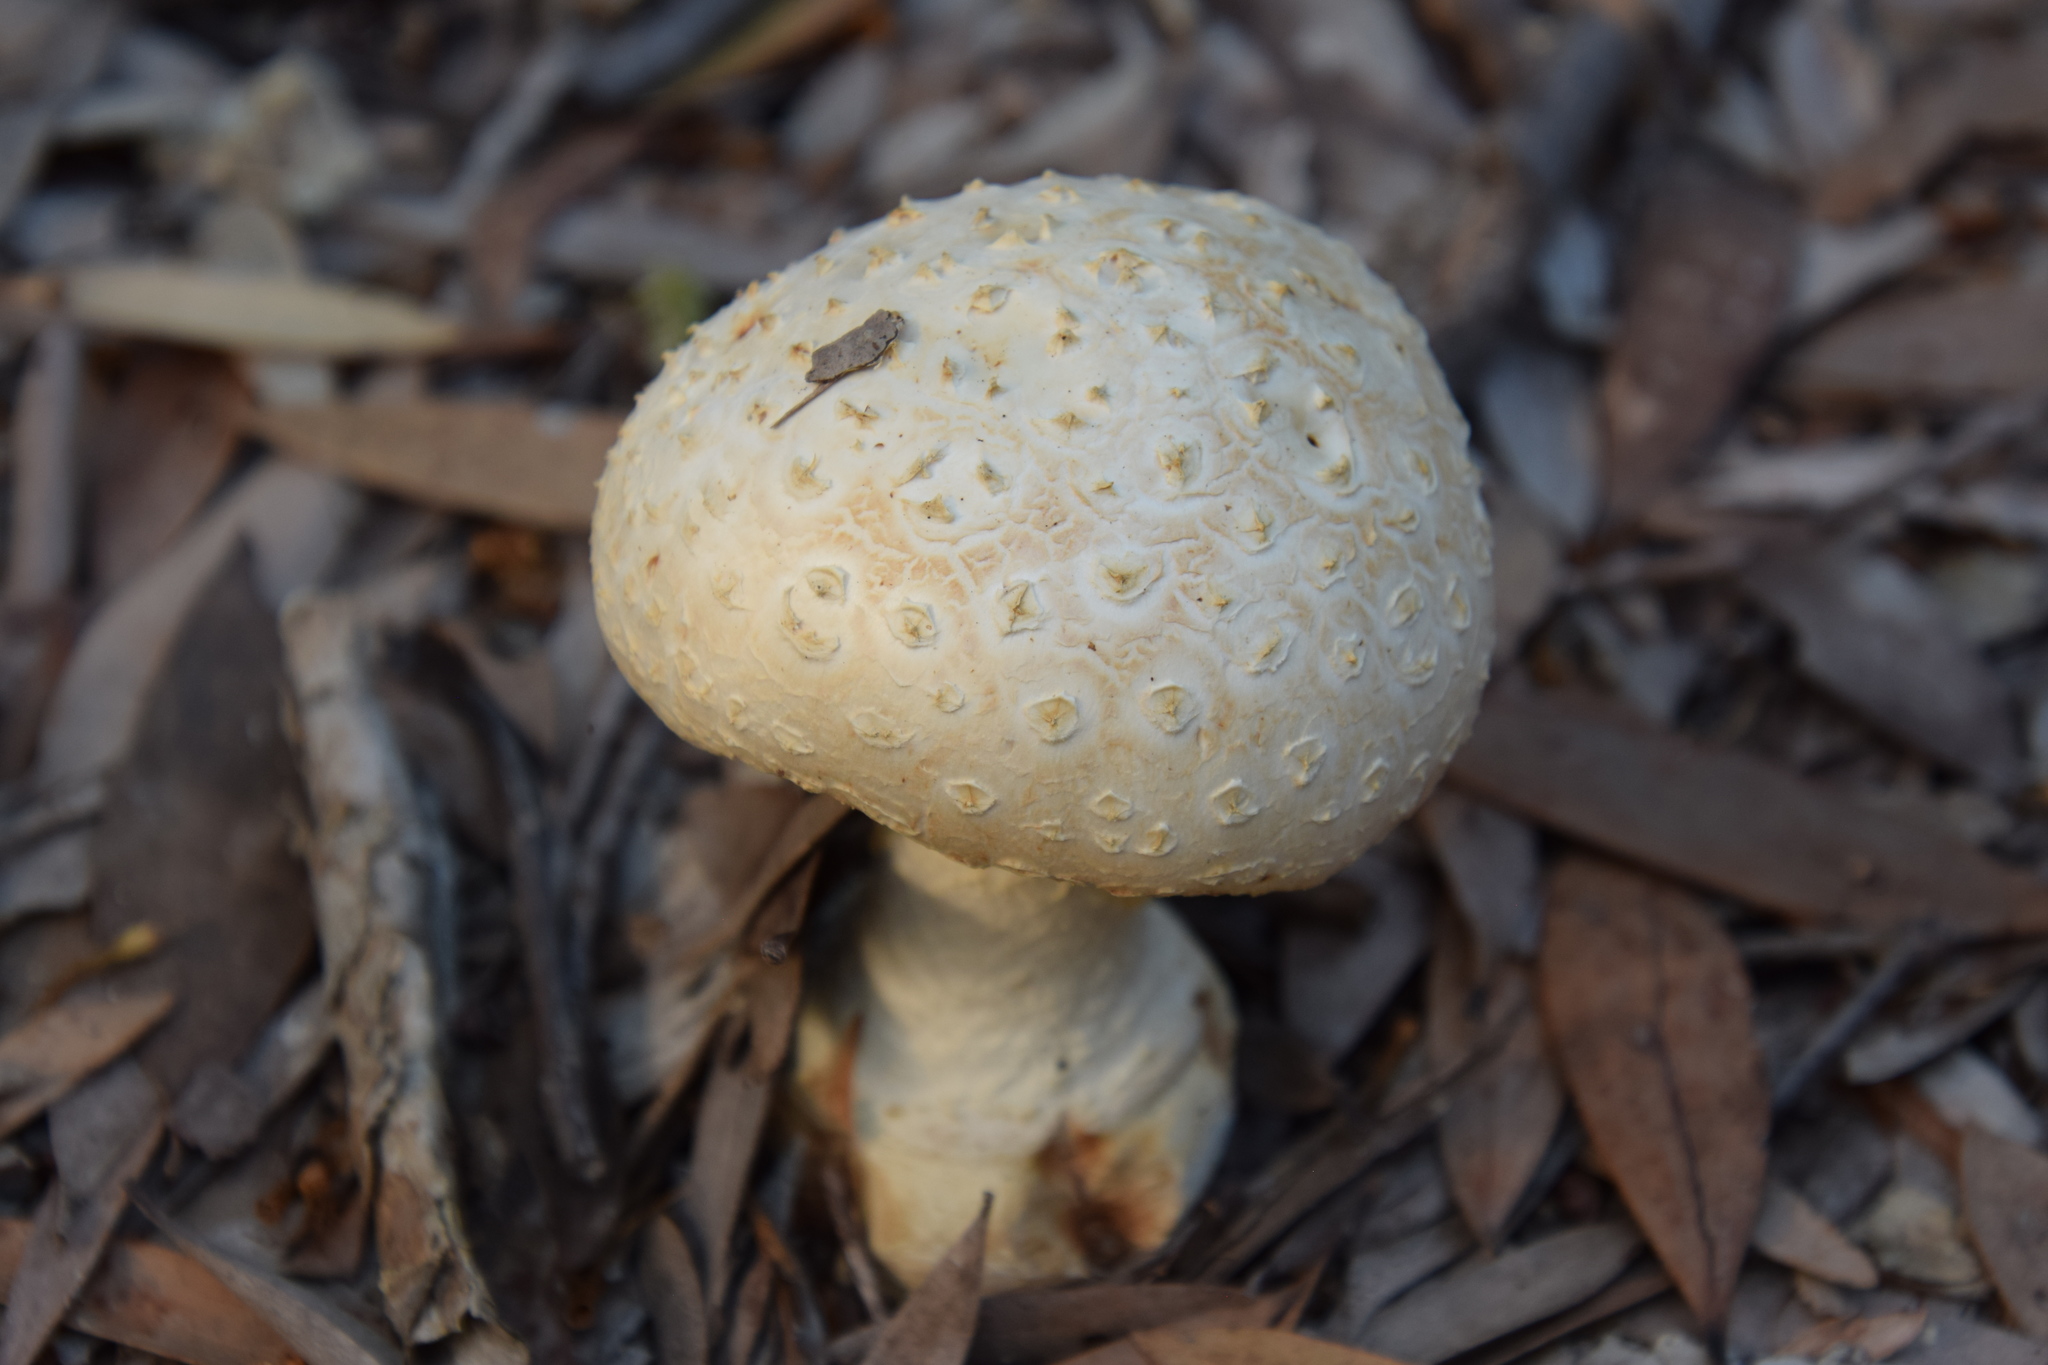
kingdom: Fungi
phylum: Basidiomycota
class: Agaricomycetes
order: Agaricales
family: Amanitaceae
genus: Amanita
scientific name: Amanita ochrophylloides
